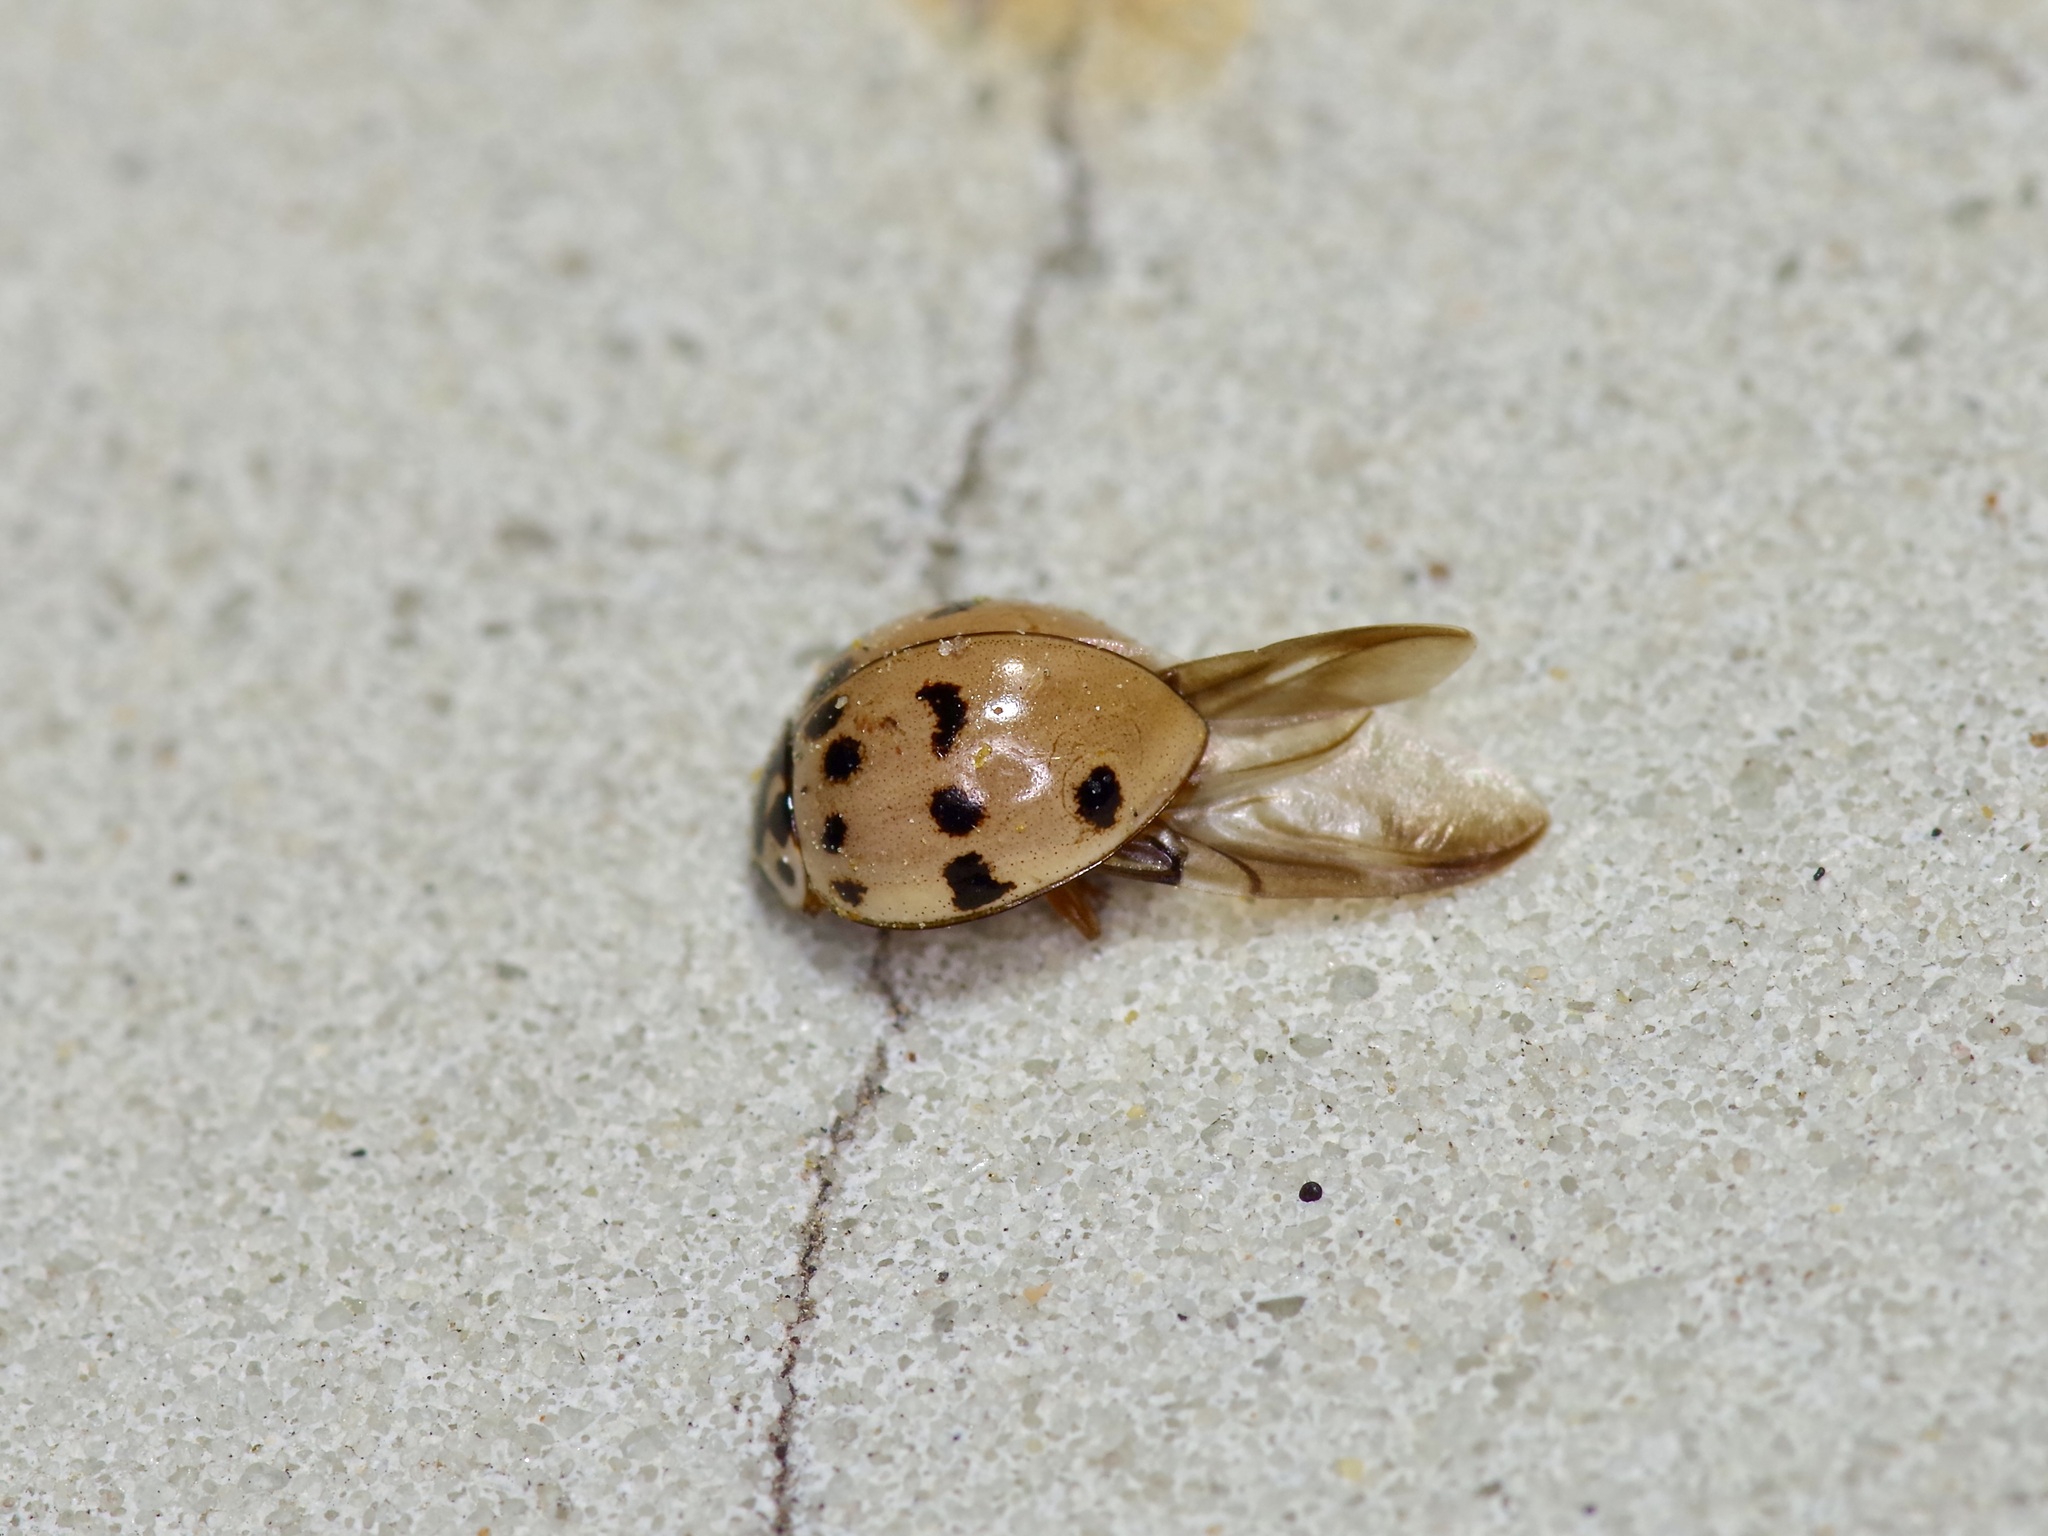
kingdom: Animalia
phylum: Arthropoda
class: Insecta
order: Coleoptera
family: Coccinellidae
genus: Olla
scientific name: Olla v-nigrum
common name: Ashy gray lady beetle
